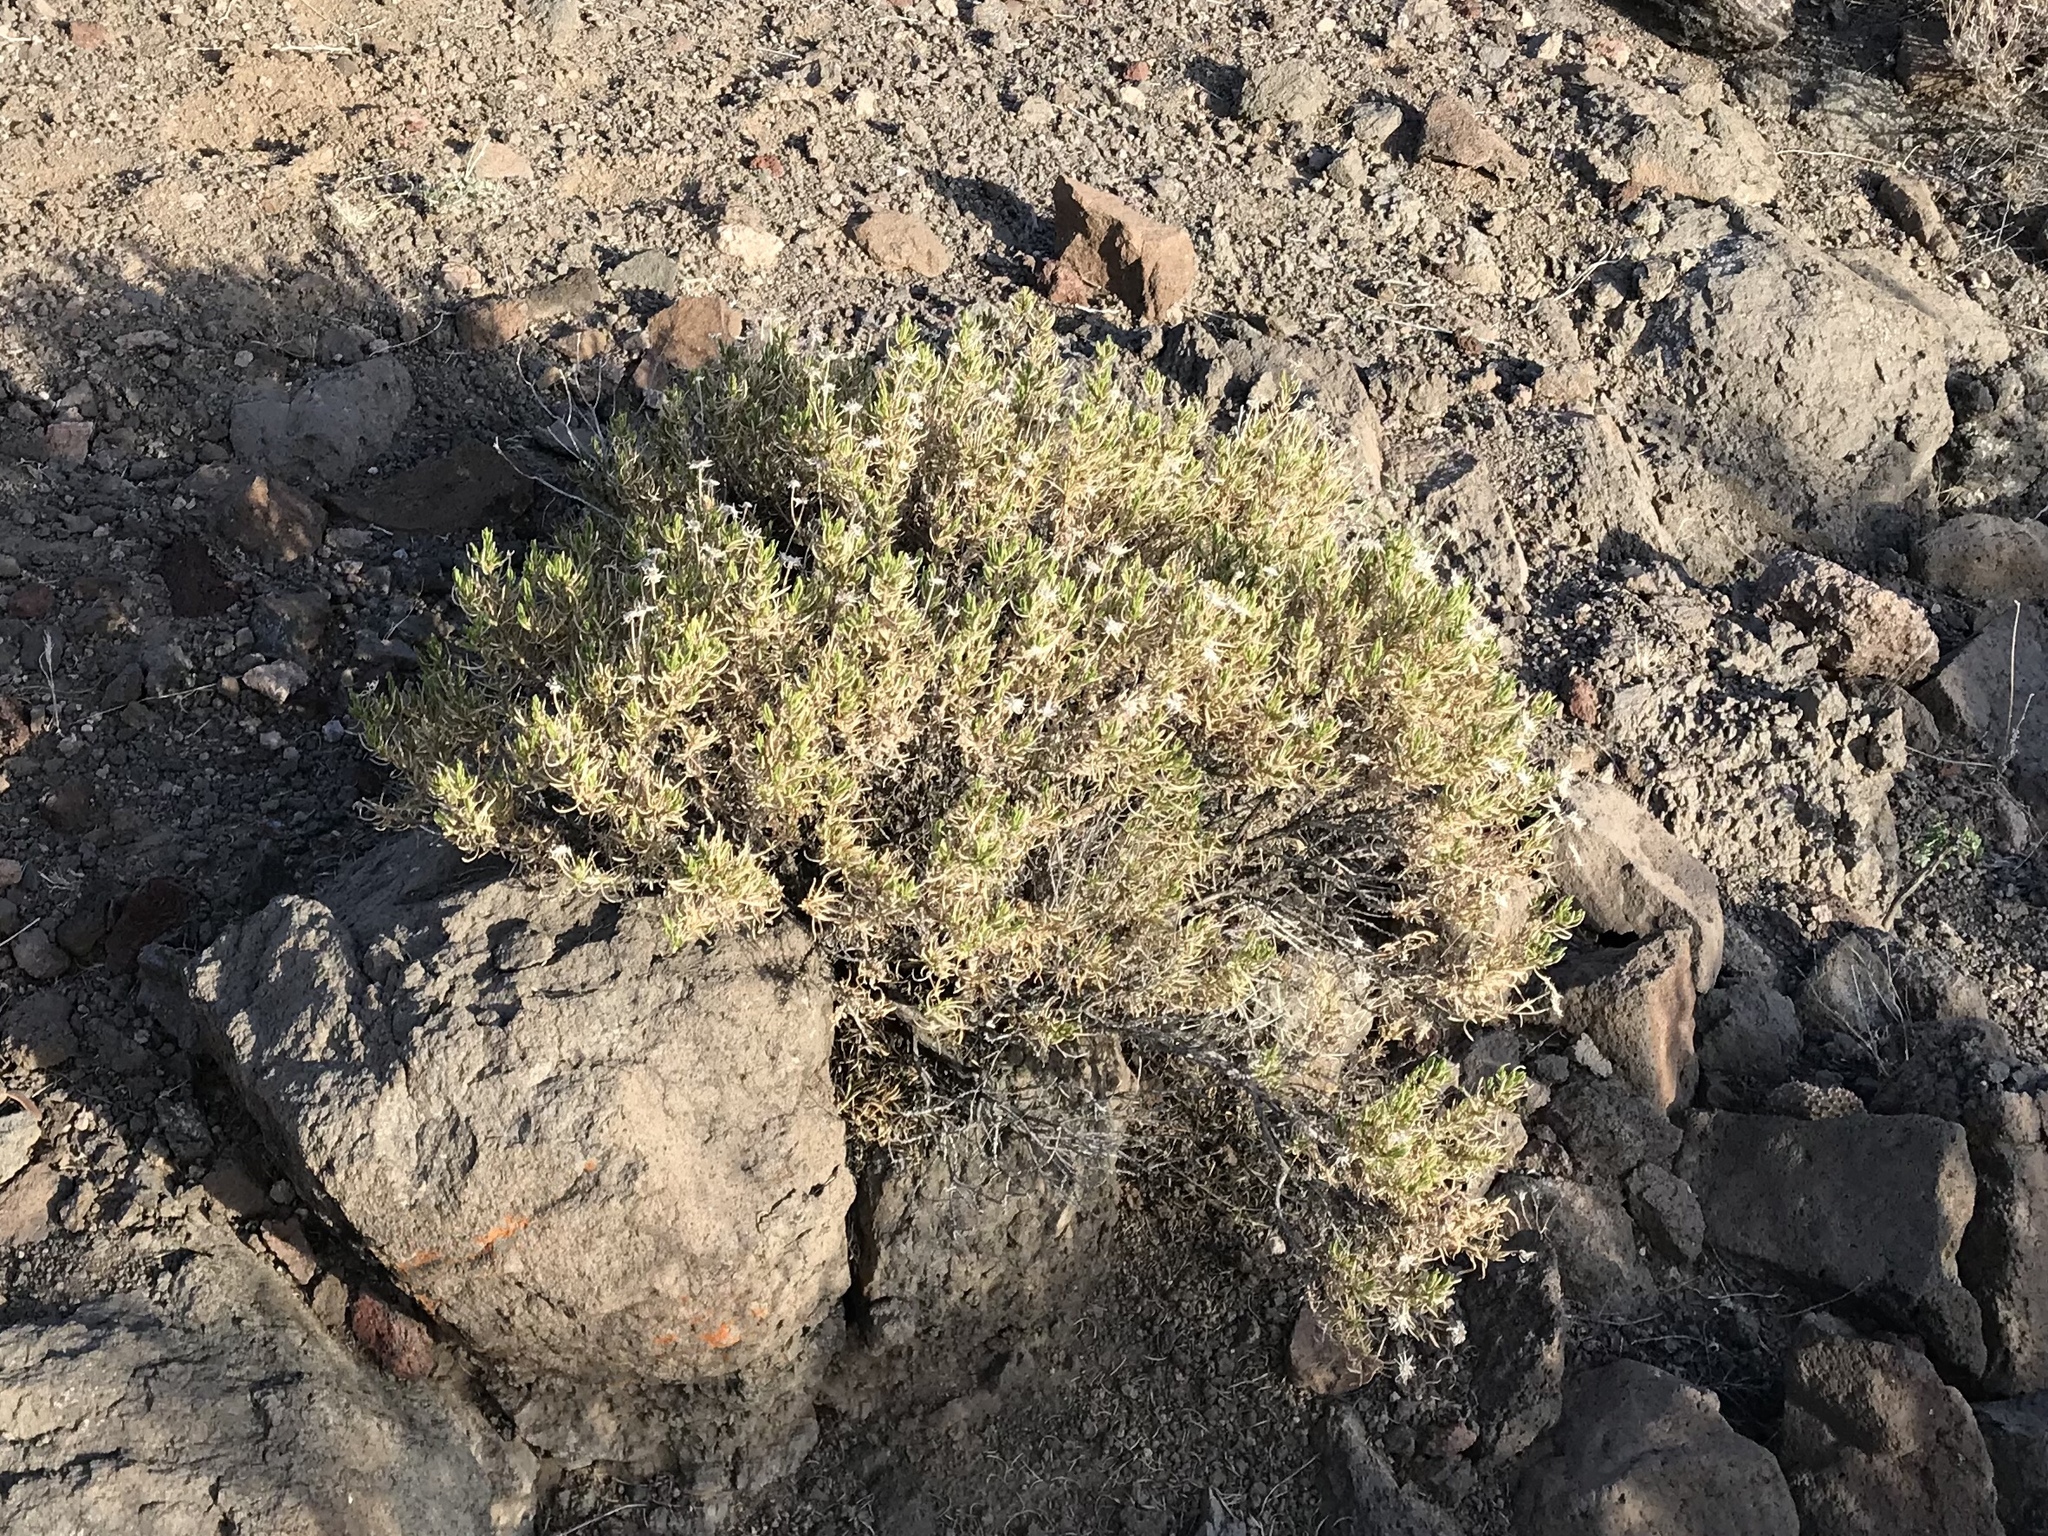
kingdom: Plantae
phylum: Tracheophyta
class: Magnoliopsida
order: Asterales
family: Asteraceae
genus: Ericameria
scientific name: Ericameria linearifolia
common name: Interior goldenbush
